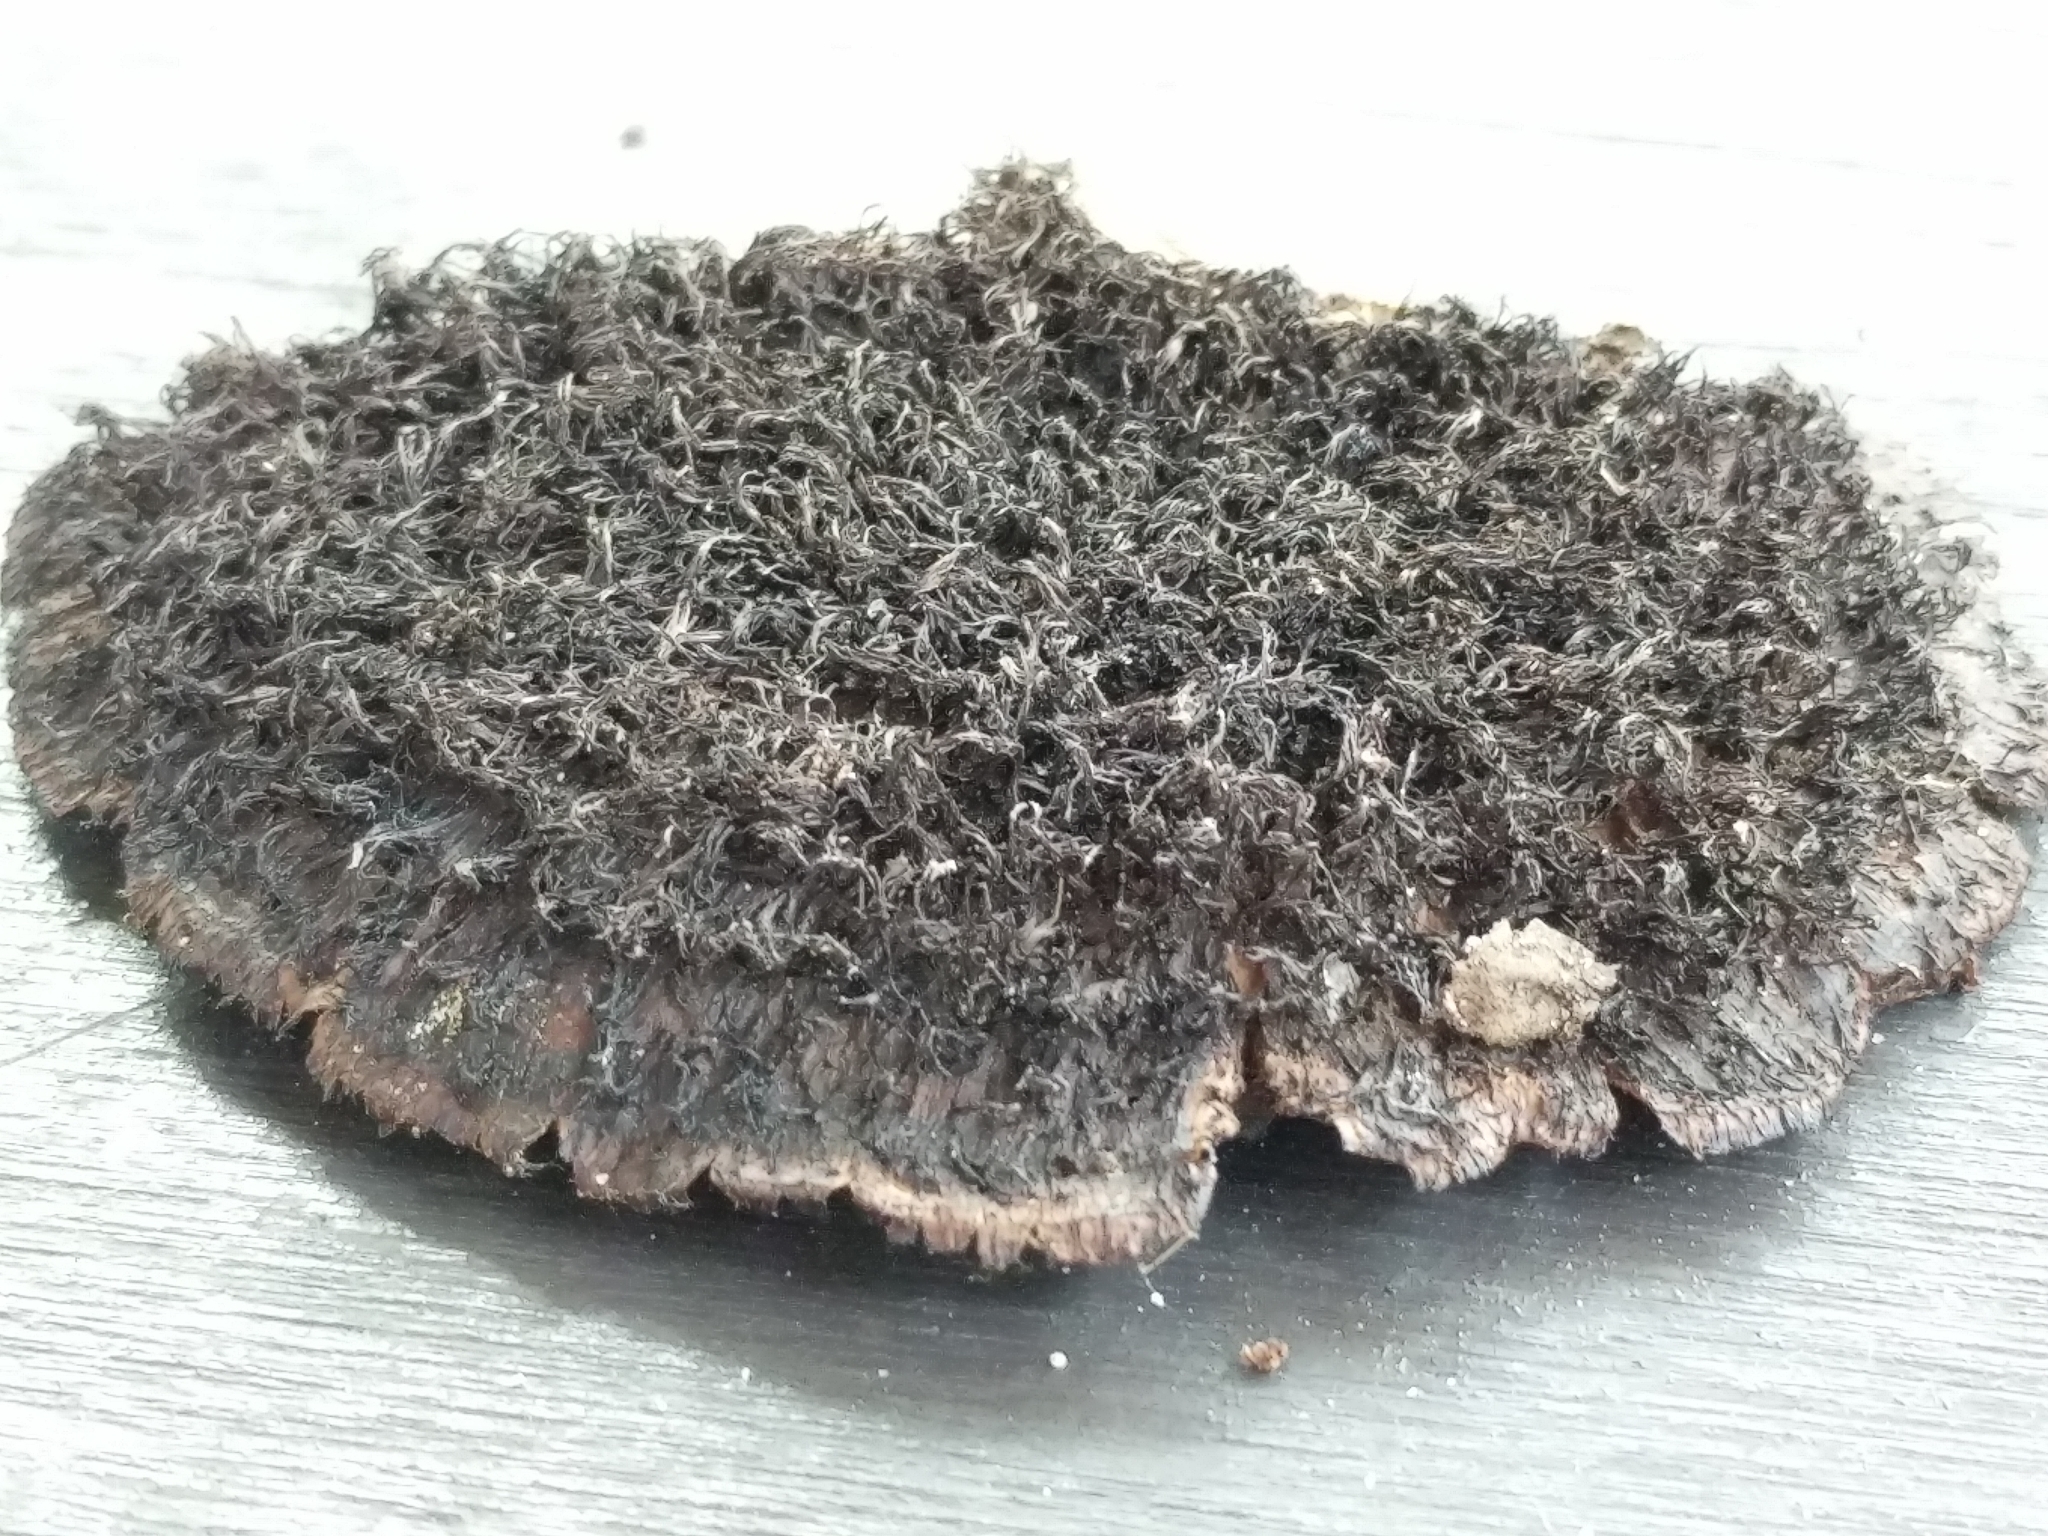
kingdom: Fungi
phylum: Basidiomycota
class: Agaricomycetes
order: Polyporales
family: Cerrenaceae
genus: Cerrena
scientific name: Cerrena hydnoides
